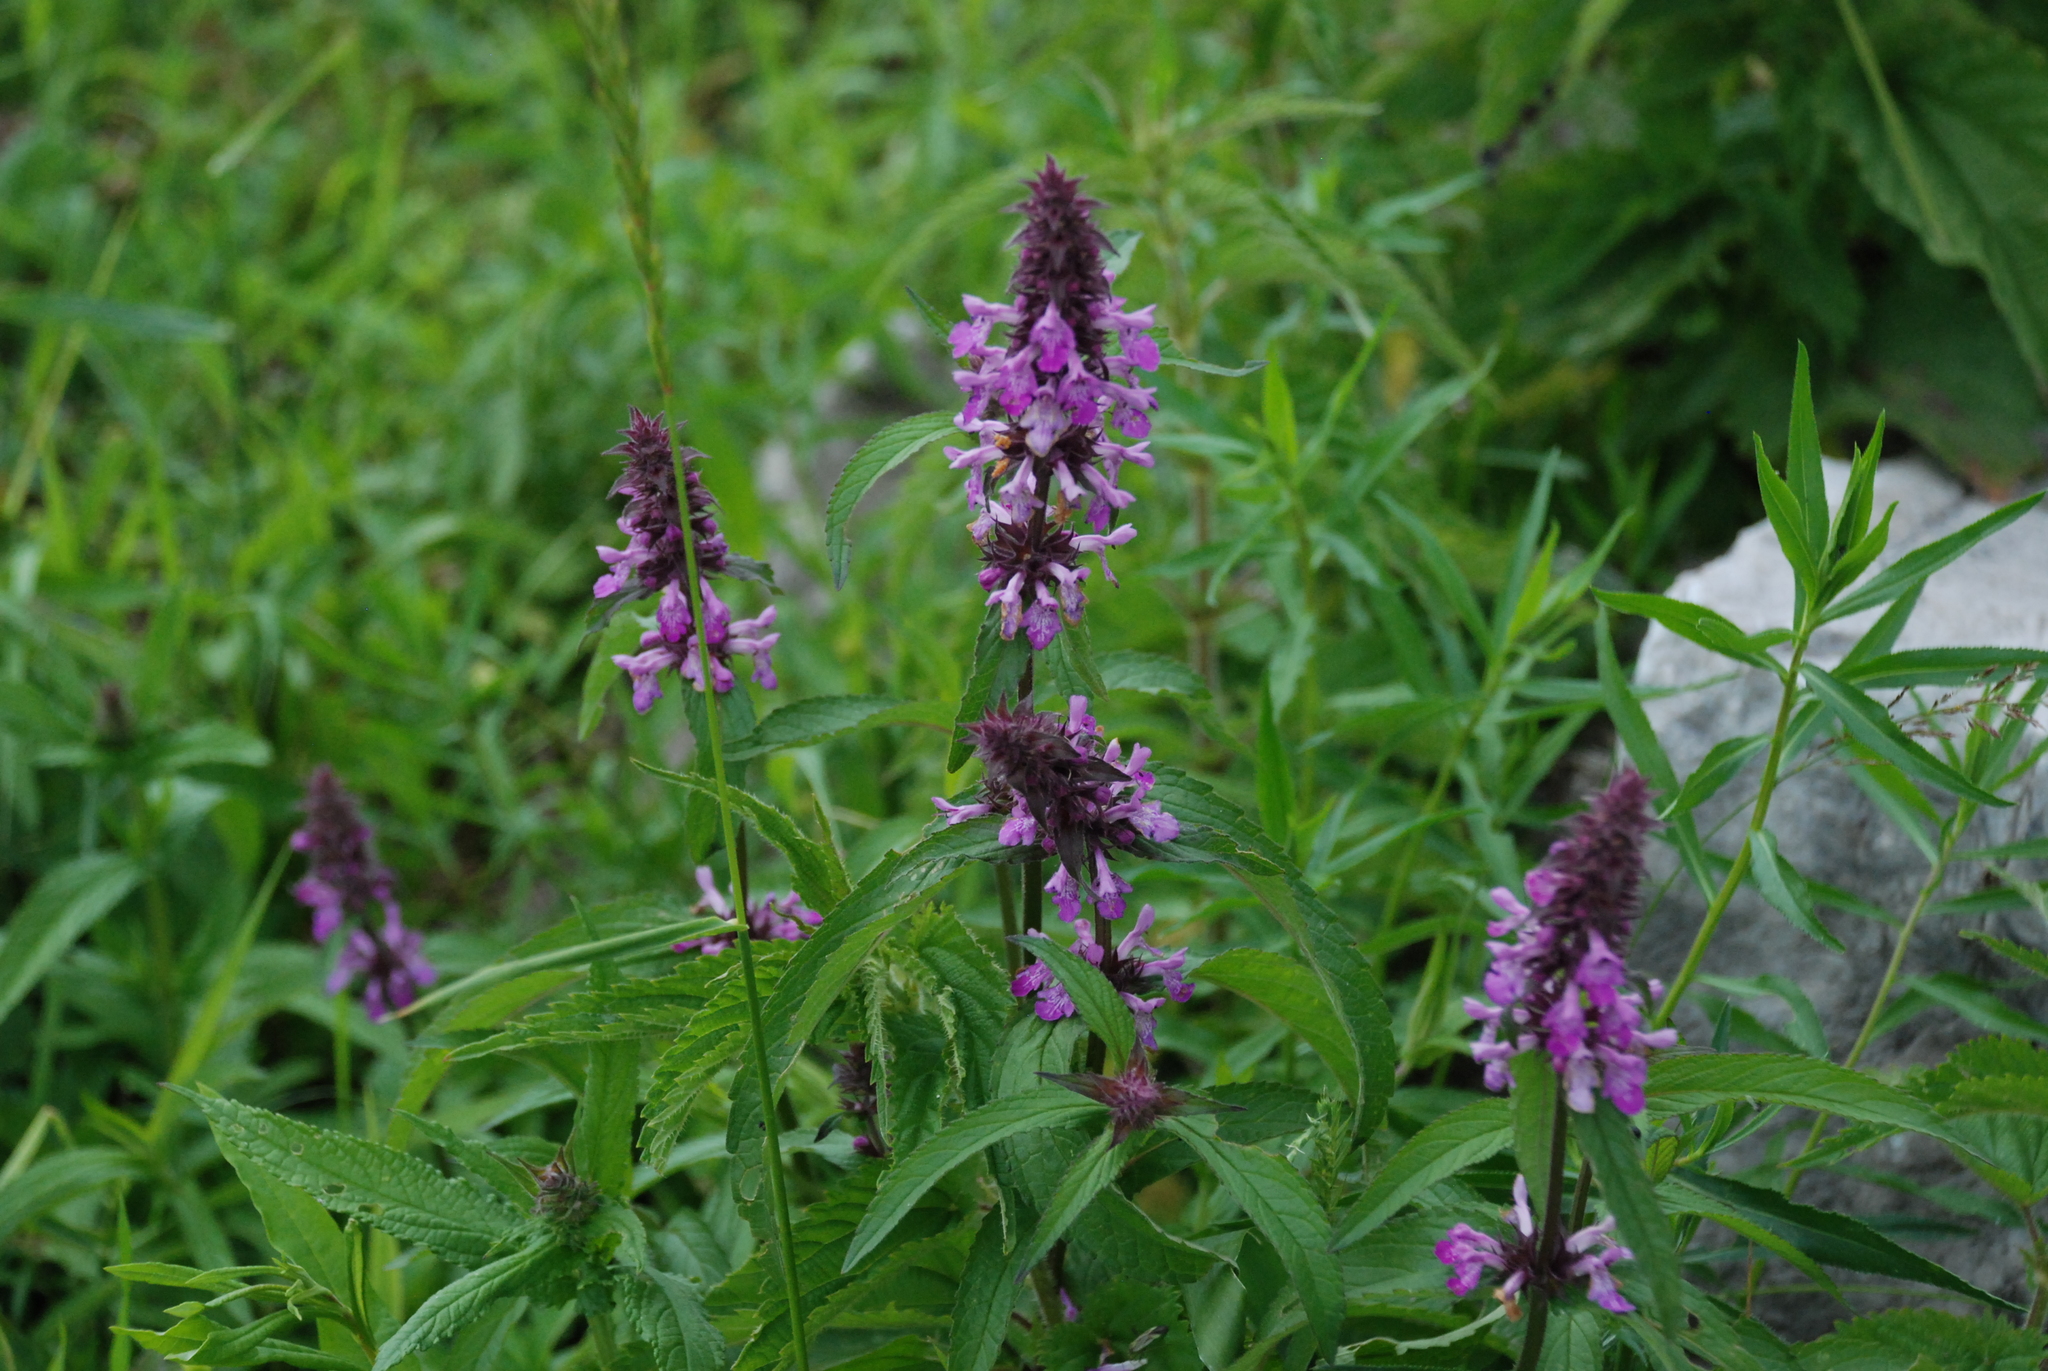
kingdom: Plantae
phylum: Tracheophyta
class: Magnoliopsida
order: Lamiales
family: Lamiaceae
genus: Stachys
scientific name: Stachys palustris
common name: Marsh woundwort
